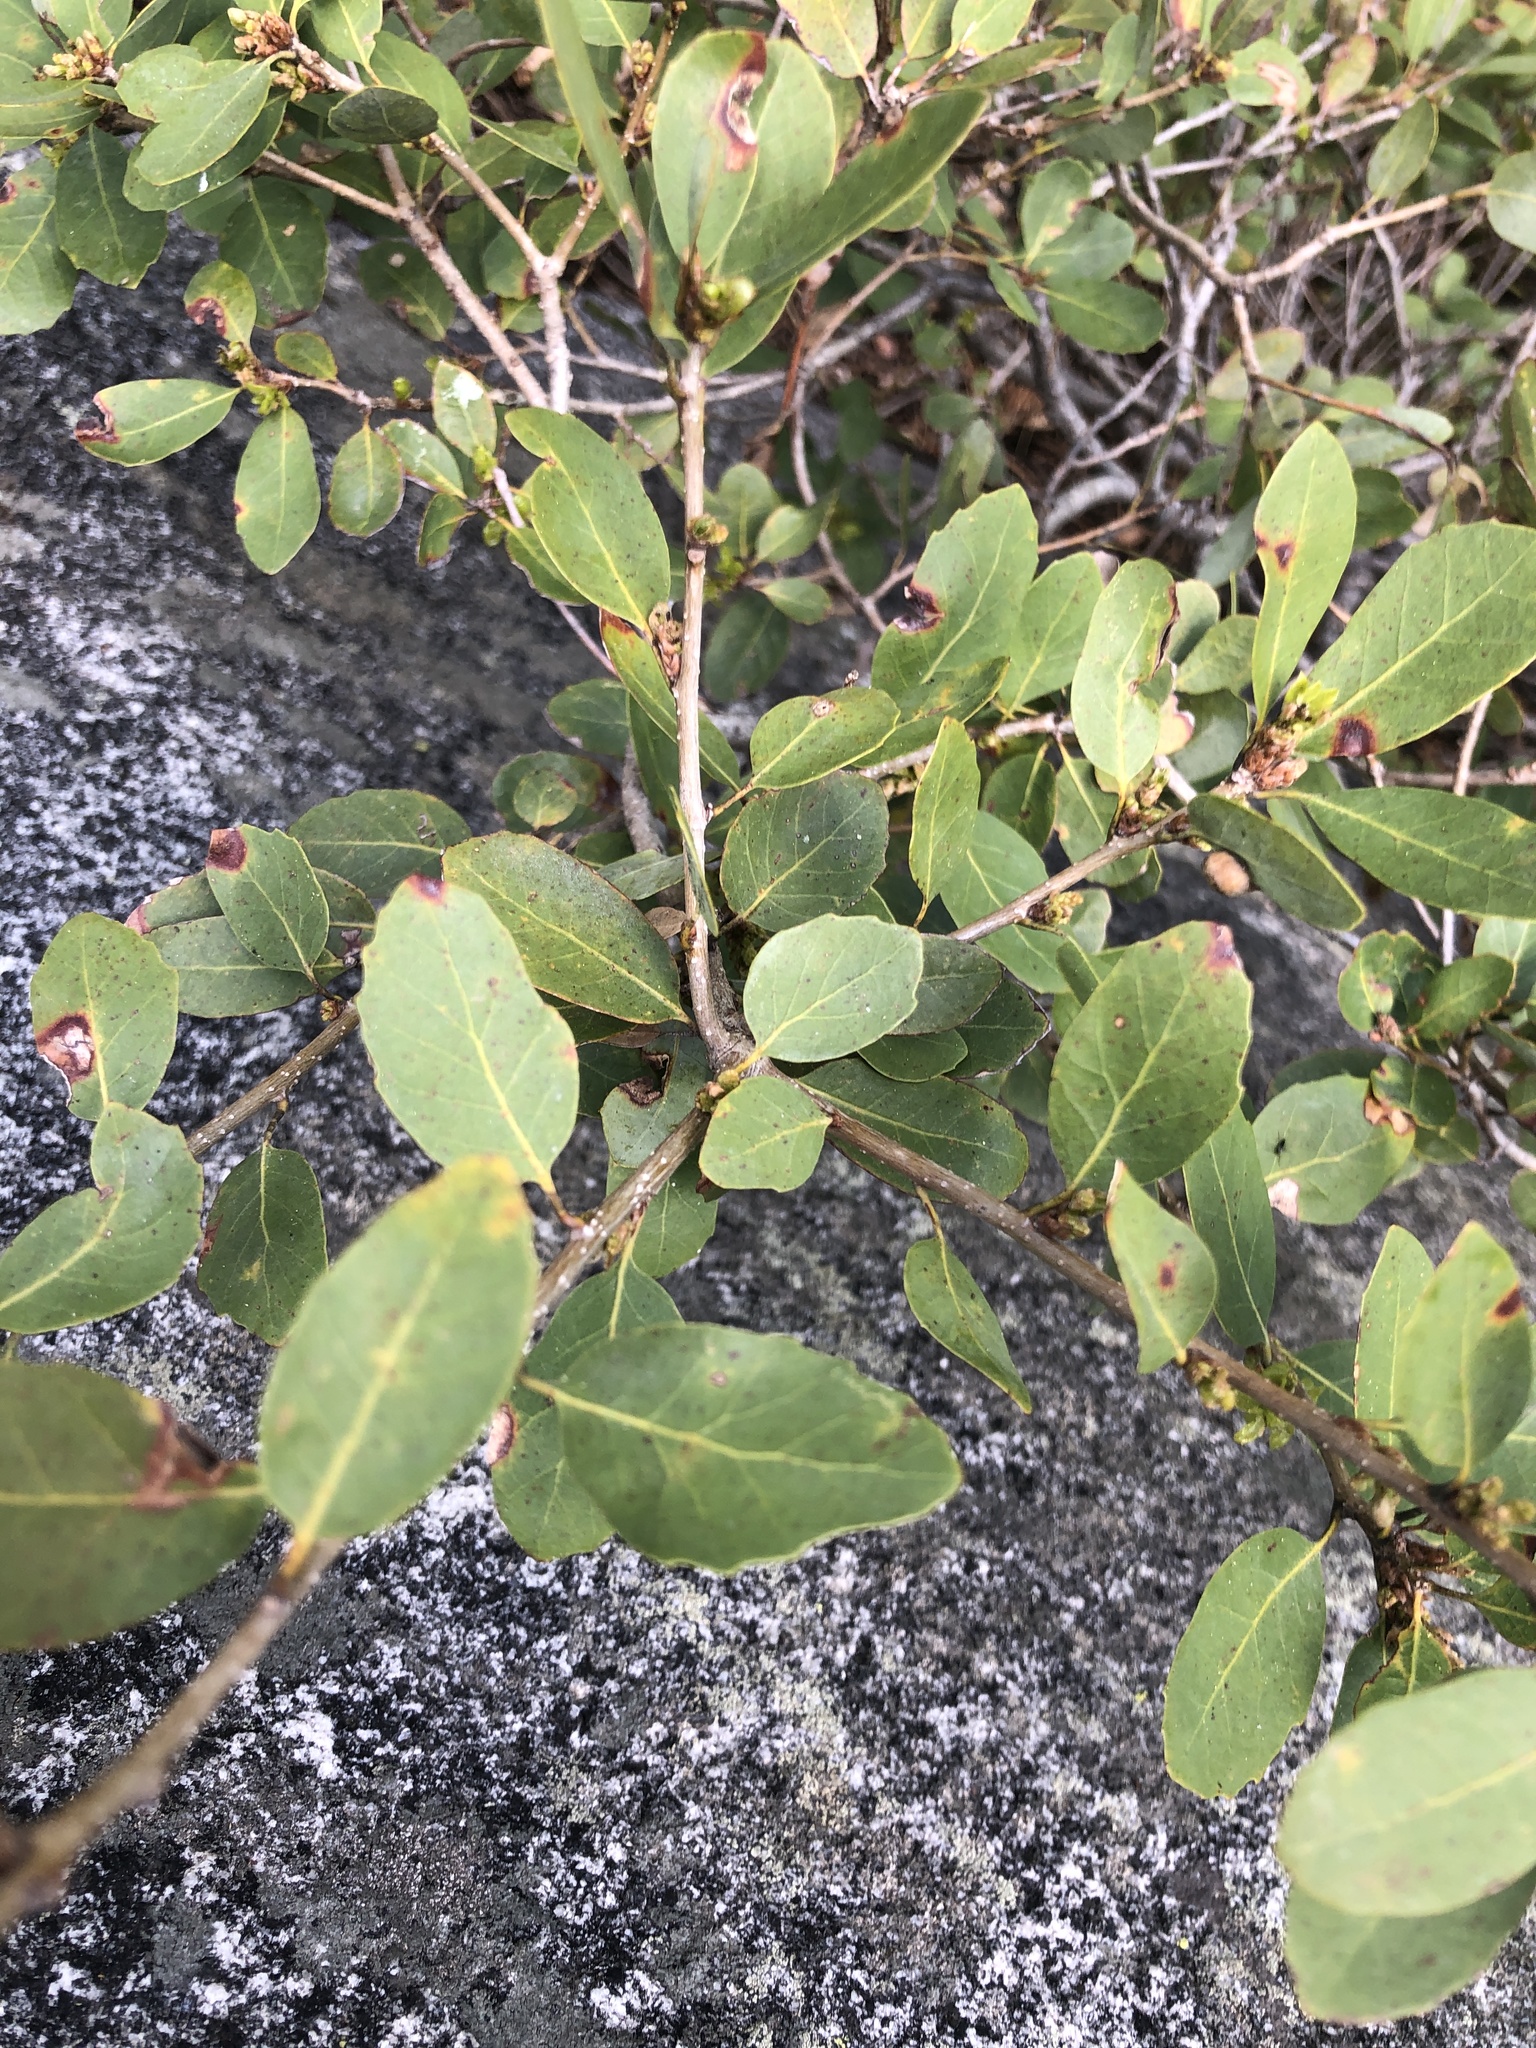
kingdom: Plantae
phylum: Tracheophyta
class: Magnoliopsida
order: Fagales
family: Fagaceae
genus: Quercus
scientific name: Quercus vacciniifolia
